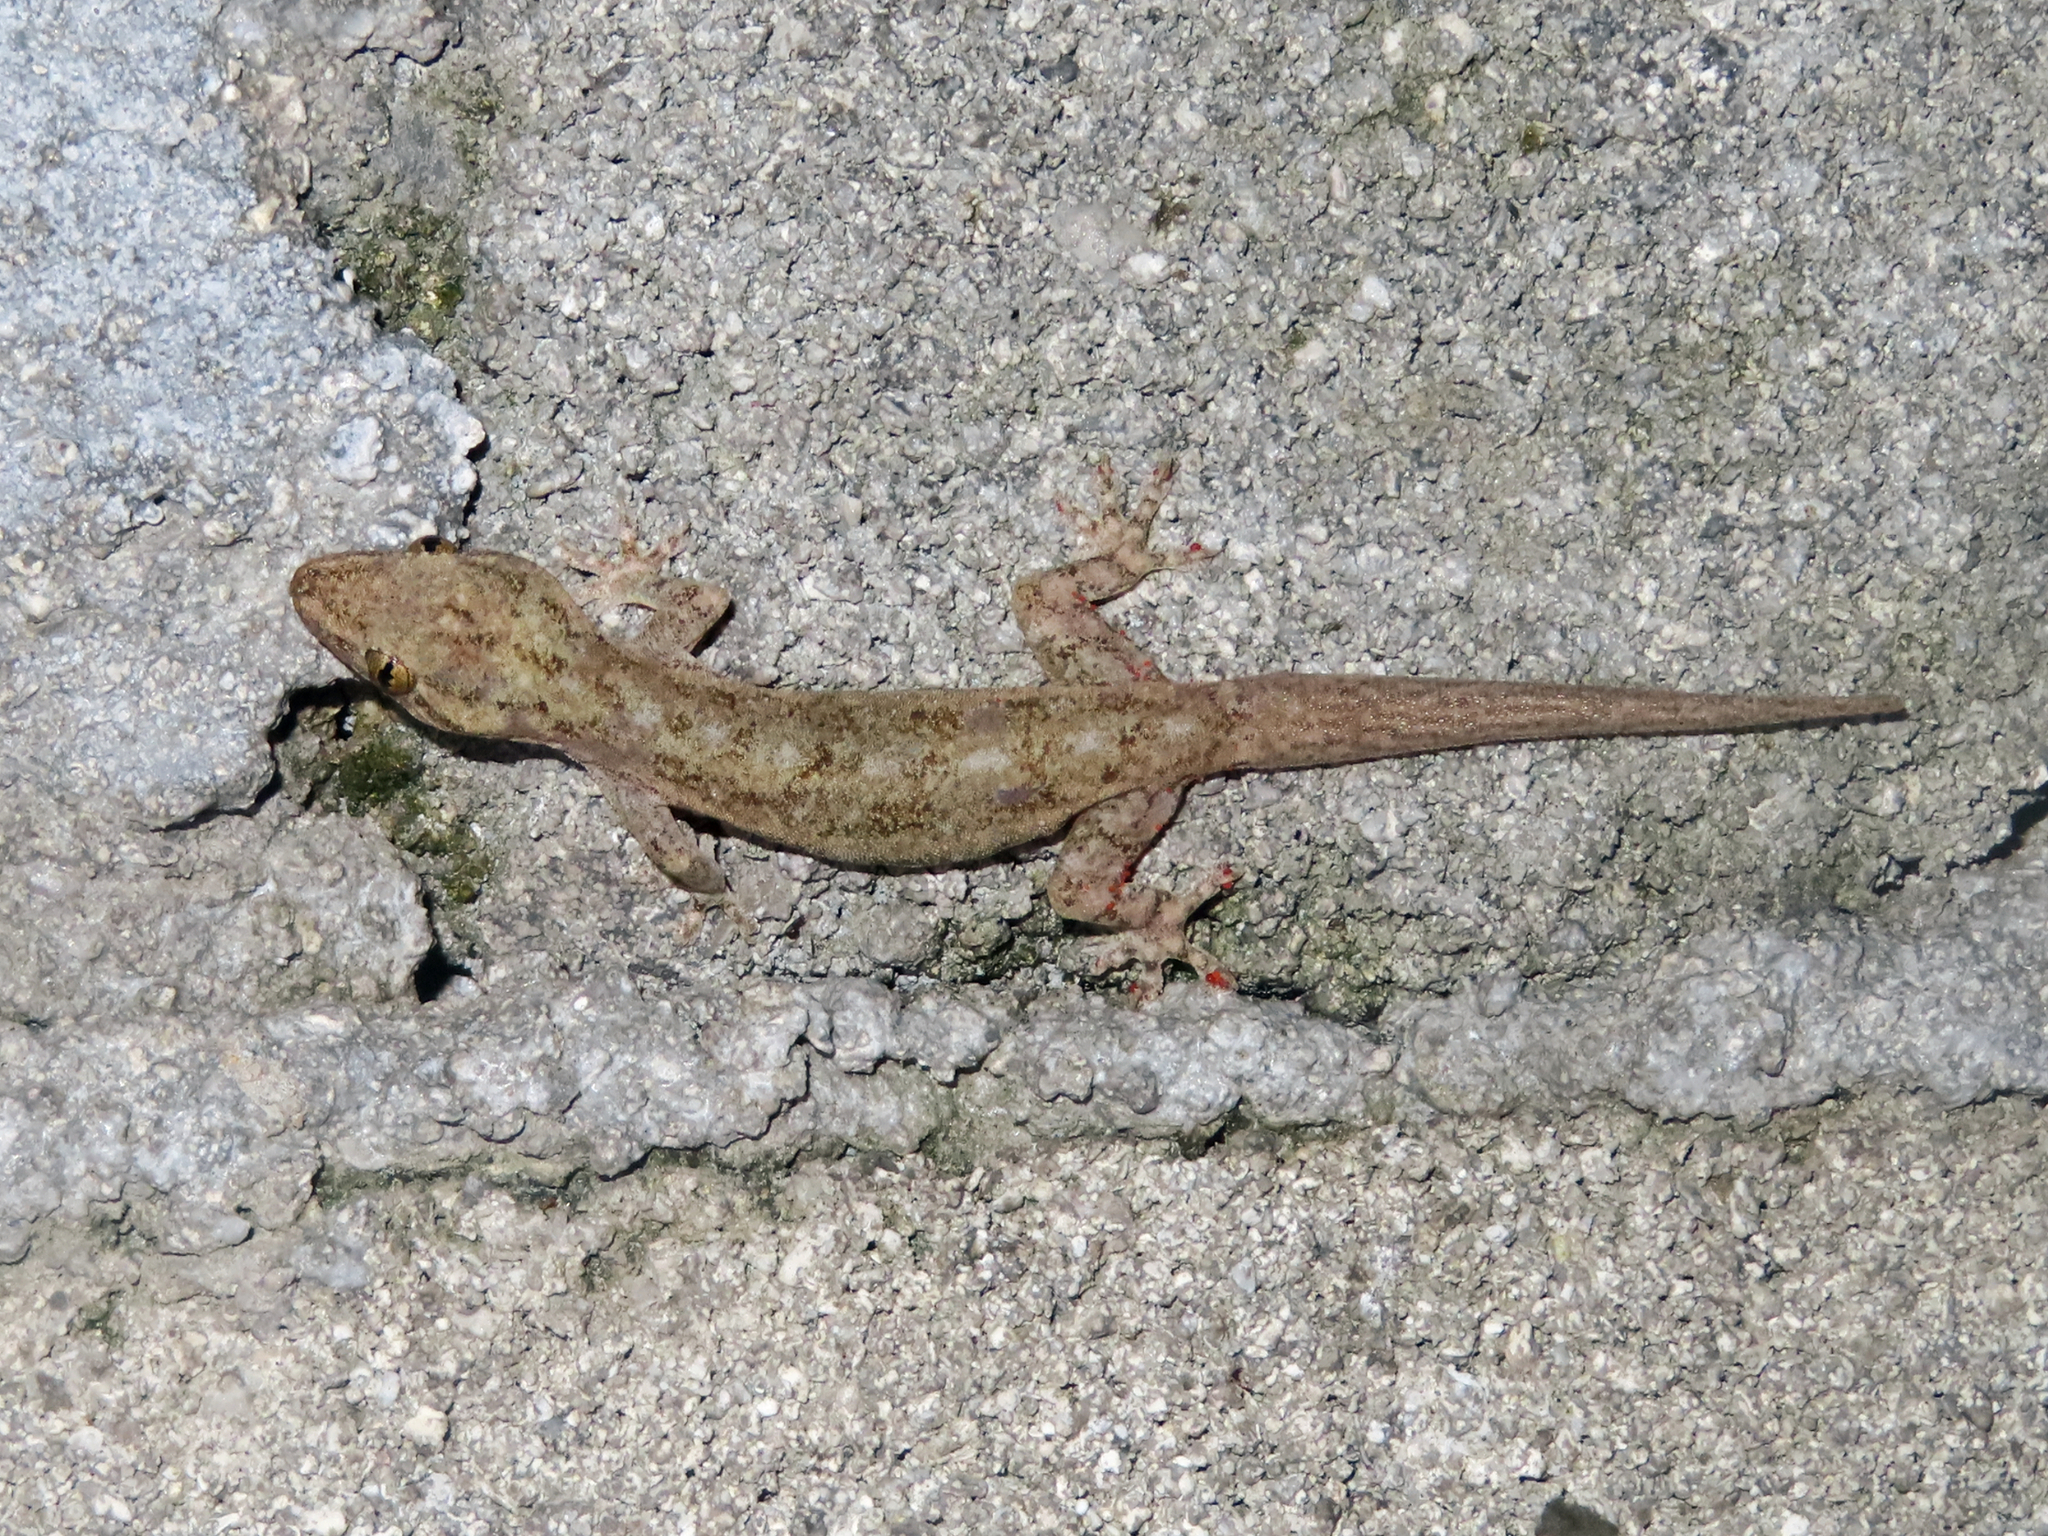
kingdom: Animalia
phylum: Chordata
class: Squamata
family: Gekkonidae
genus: Hemidactylus
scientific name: Hemidactylus frenatus
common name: Common house gecko
